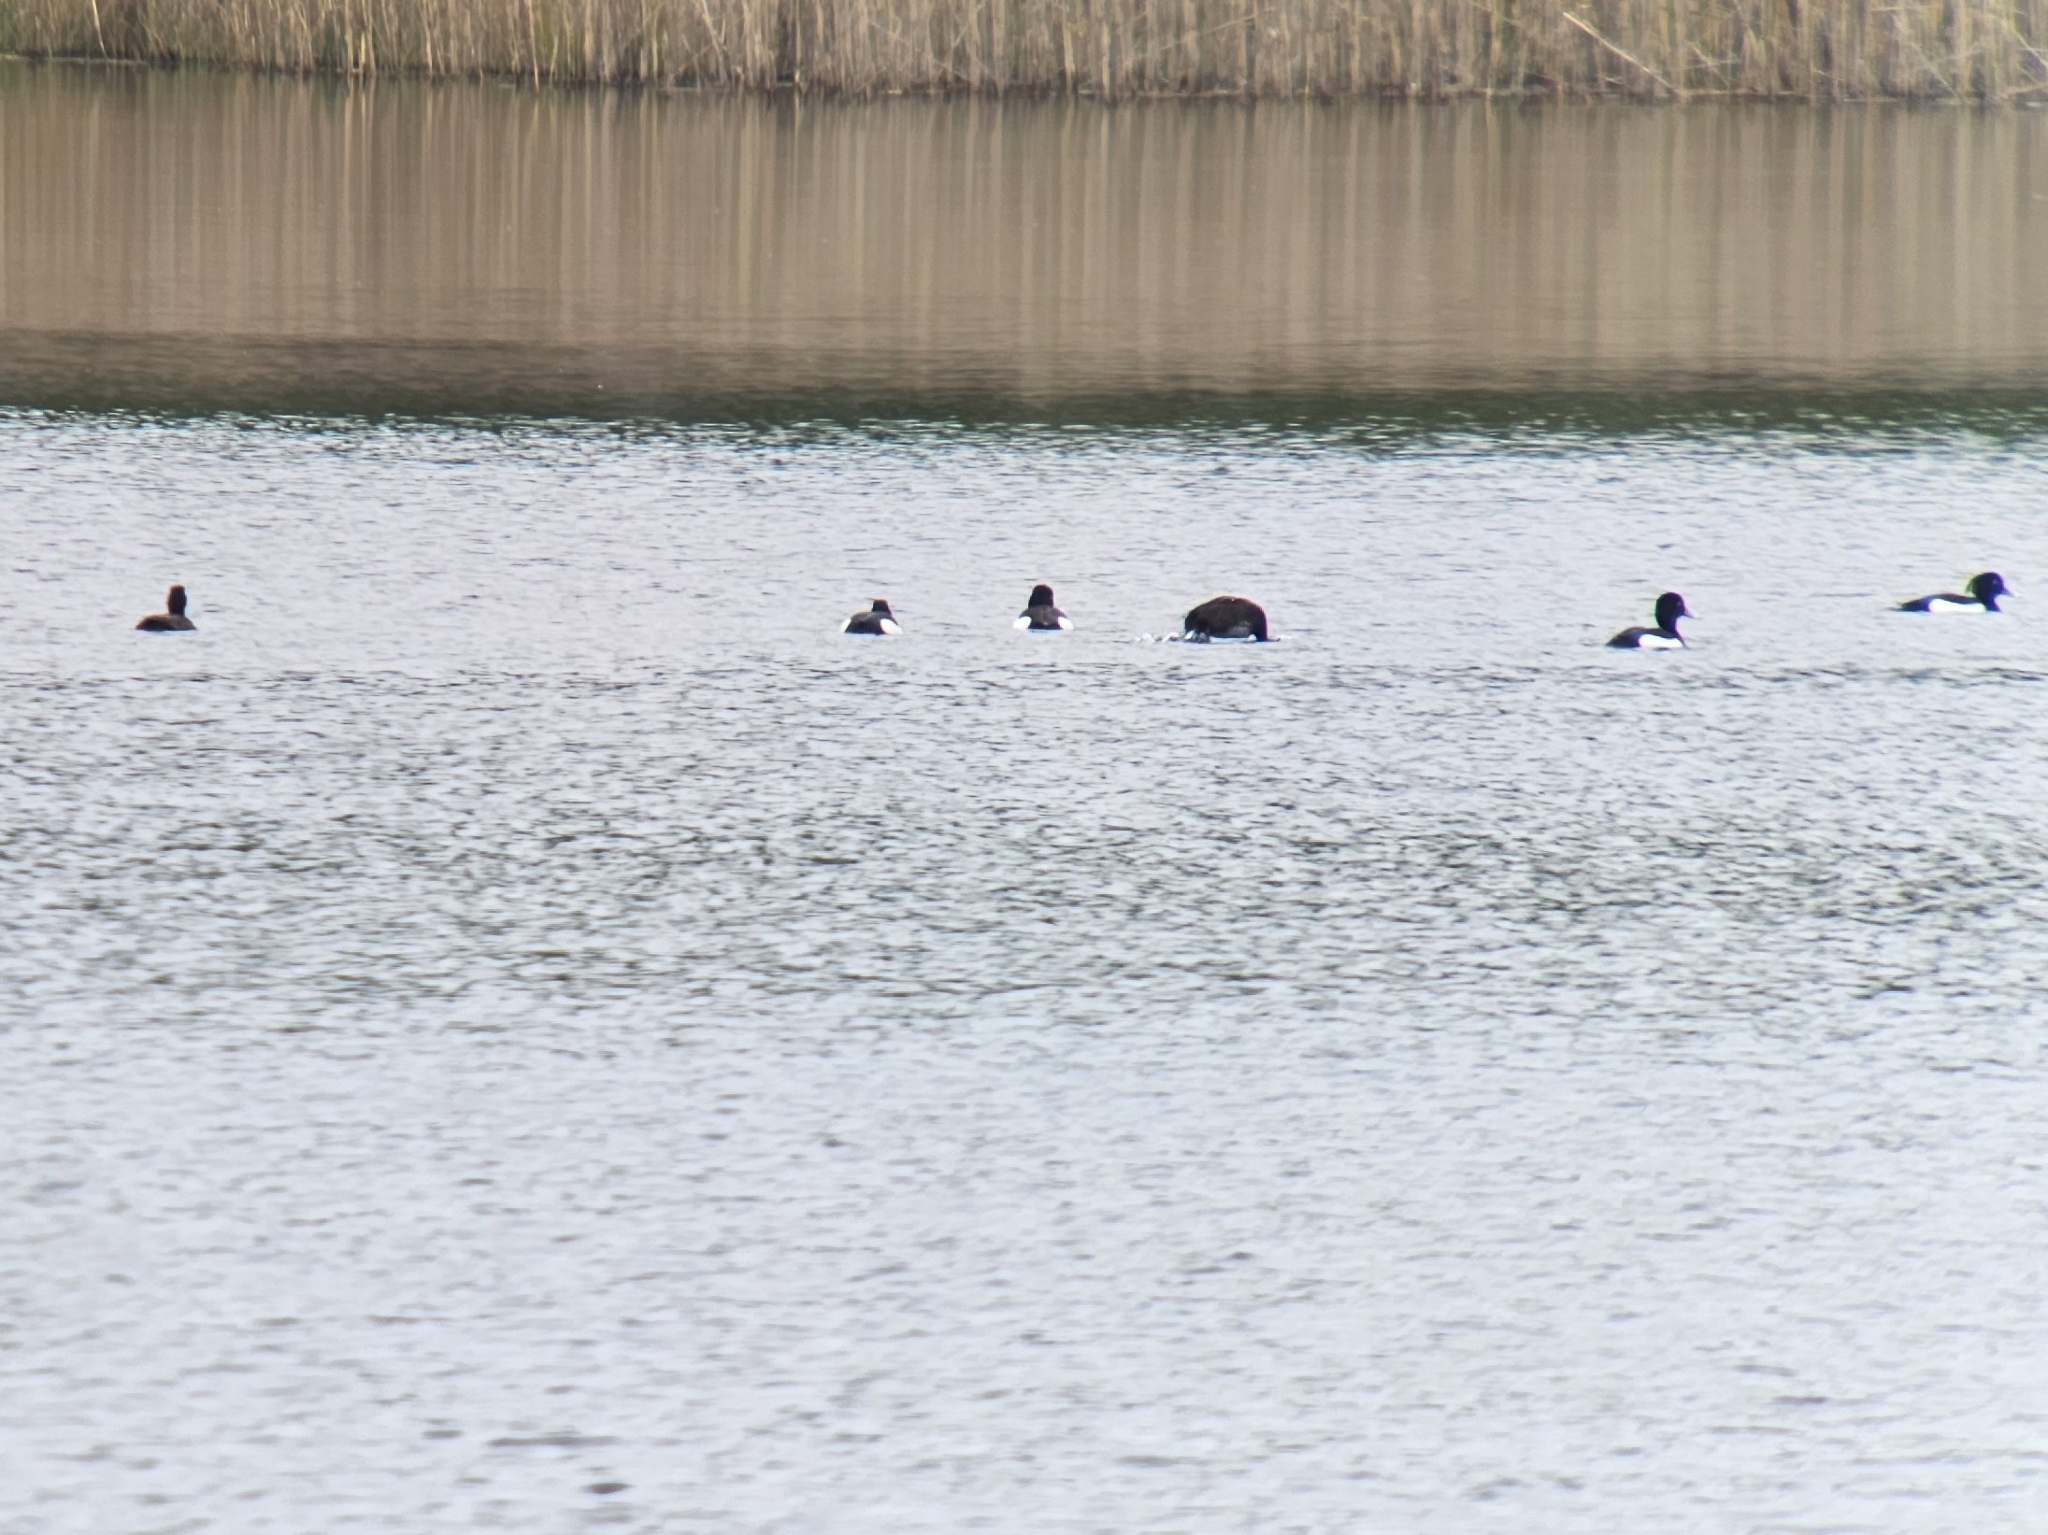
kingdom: Animalia
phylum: Chordata
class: Aves
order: Anseriformes
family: Anatidae
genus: Aythya
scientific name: Aythya fuligula
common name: Tufted duck
